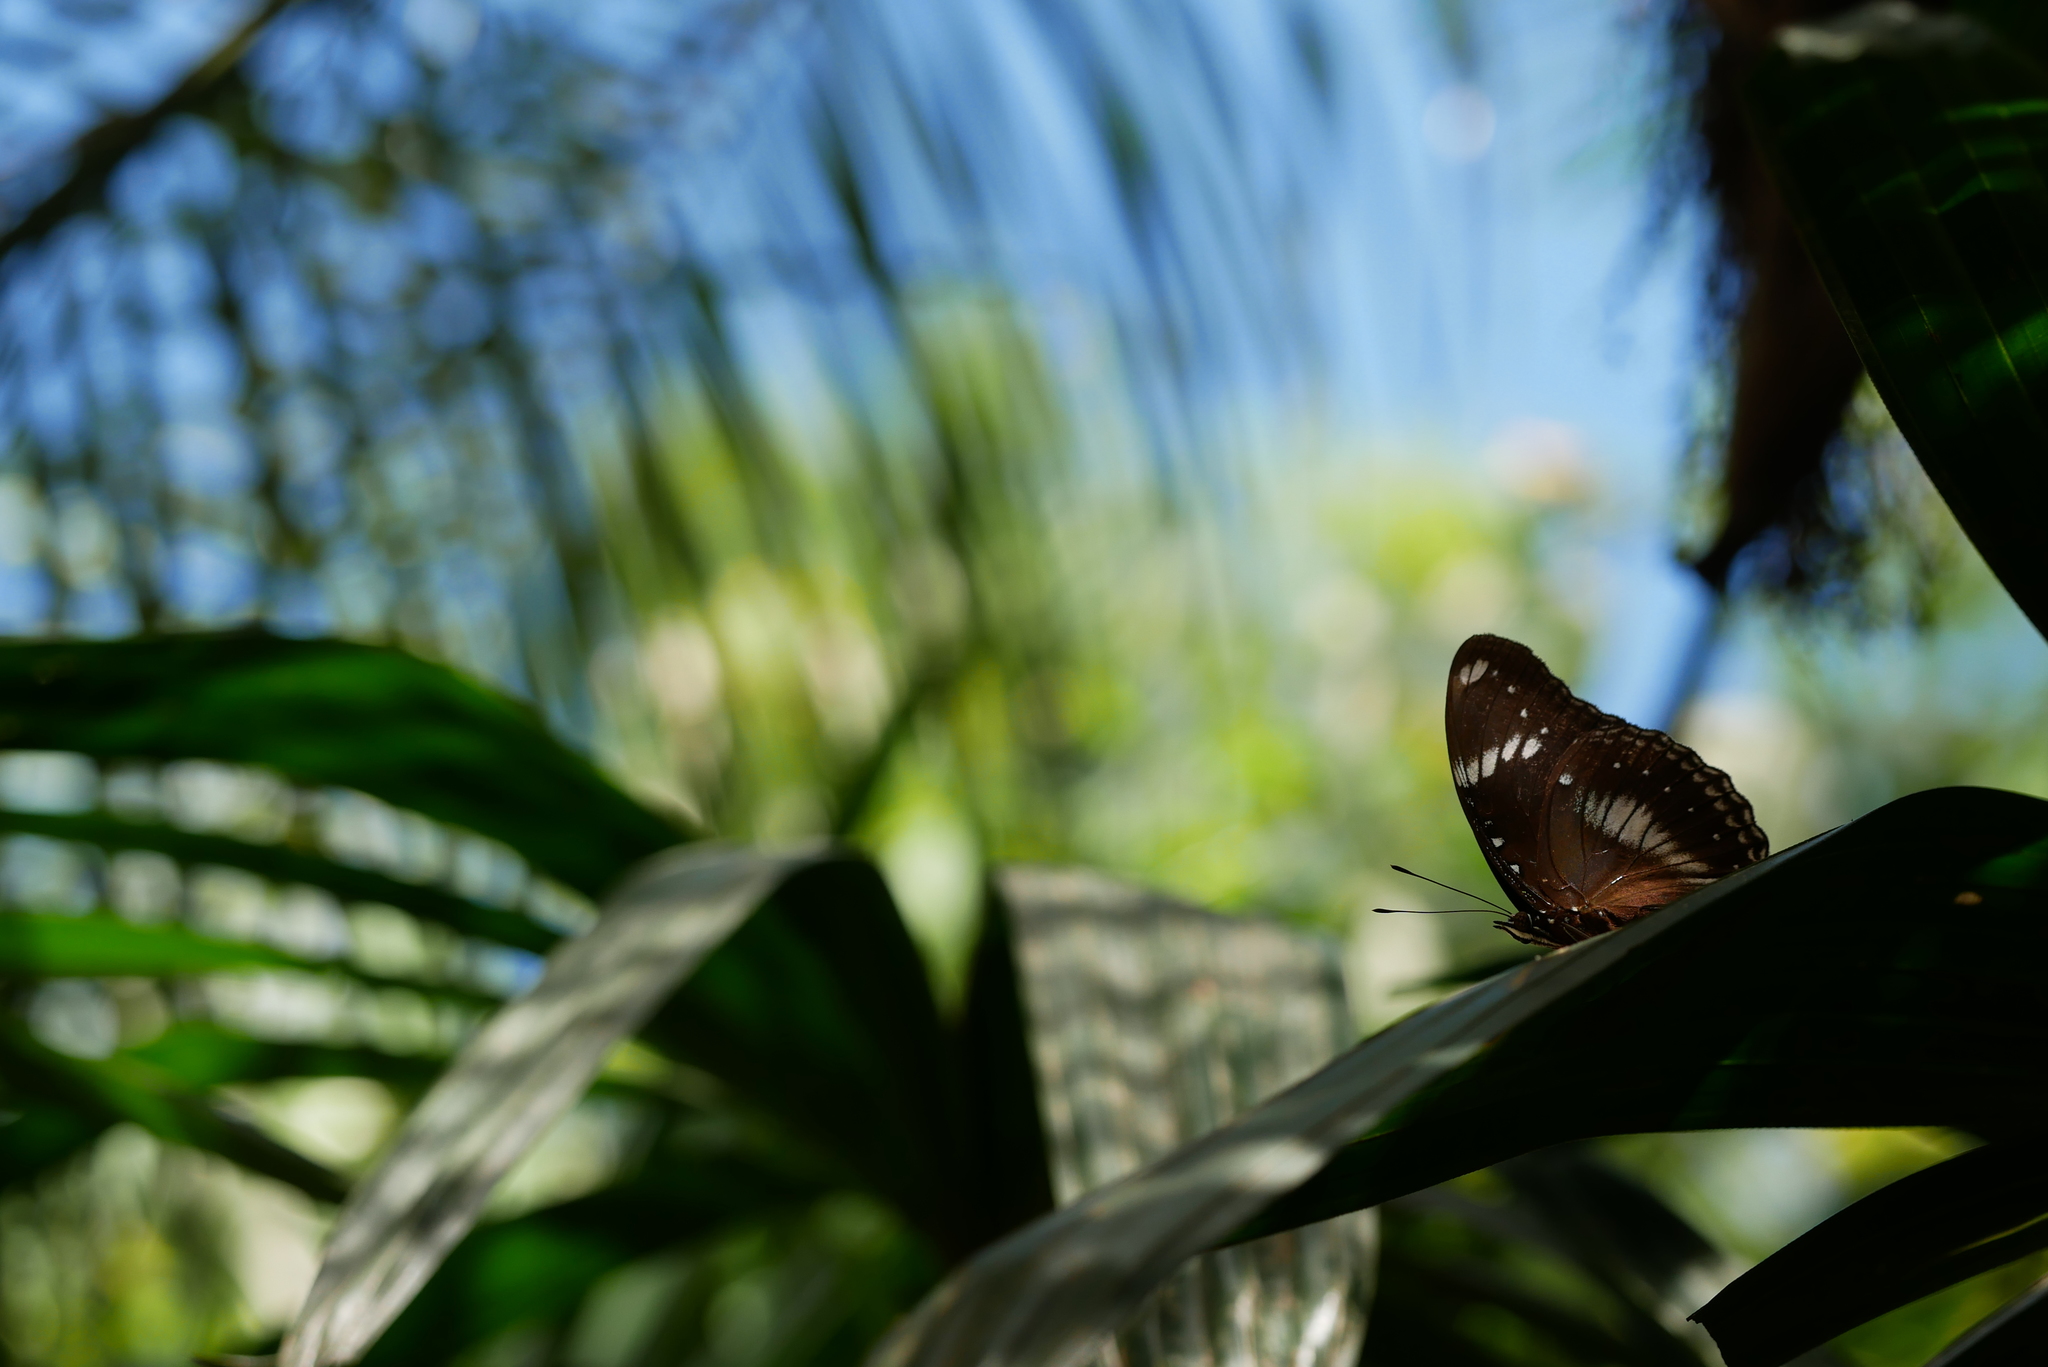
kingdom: Animalia
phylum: Arthropoda
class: Insecta
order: Lepidoptera
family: Nymphalidae
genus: Hypolimnas
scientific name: Hypolimnas bolina
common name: Great eggfly
